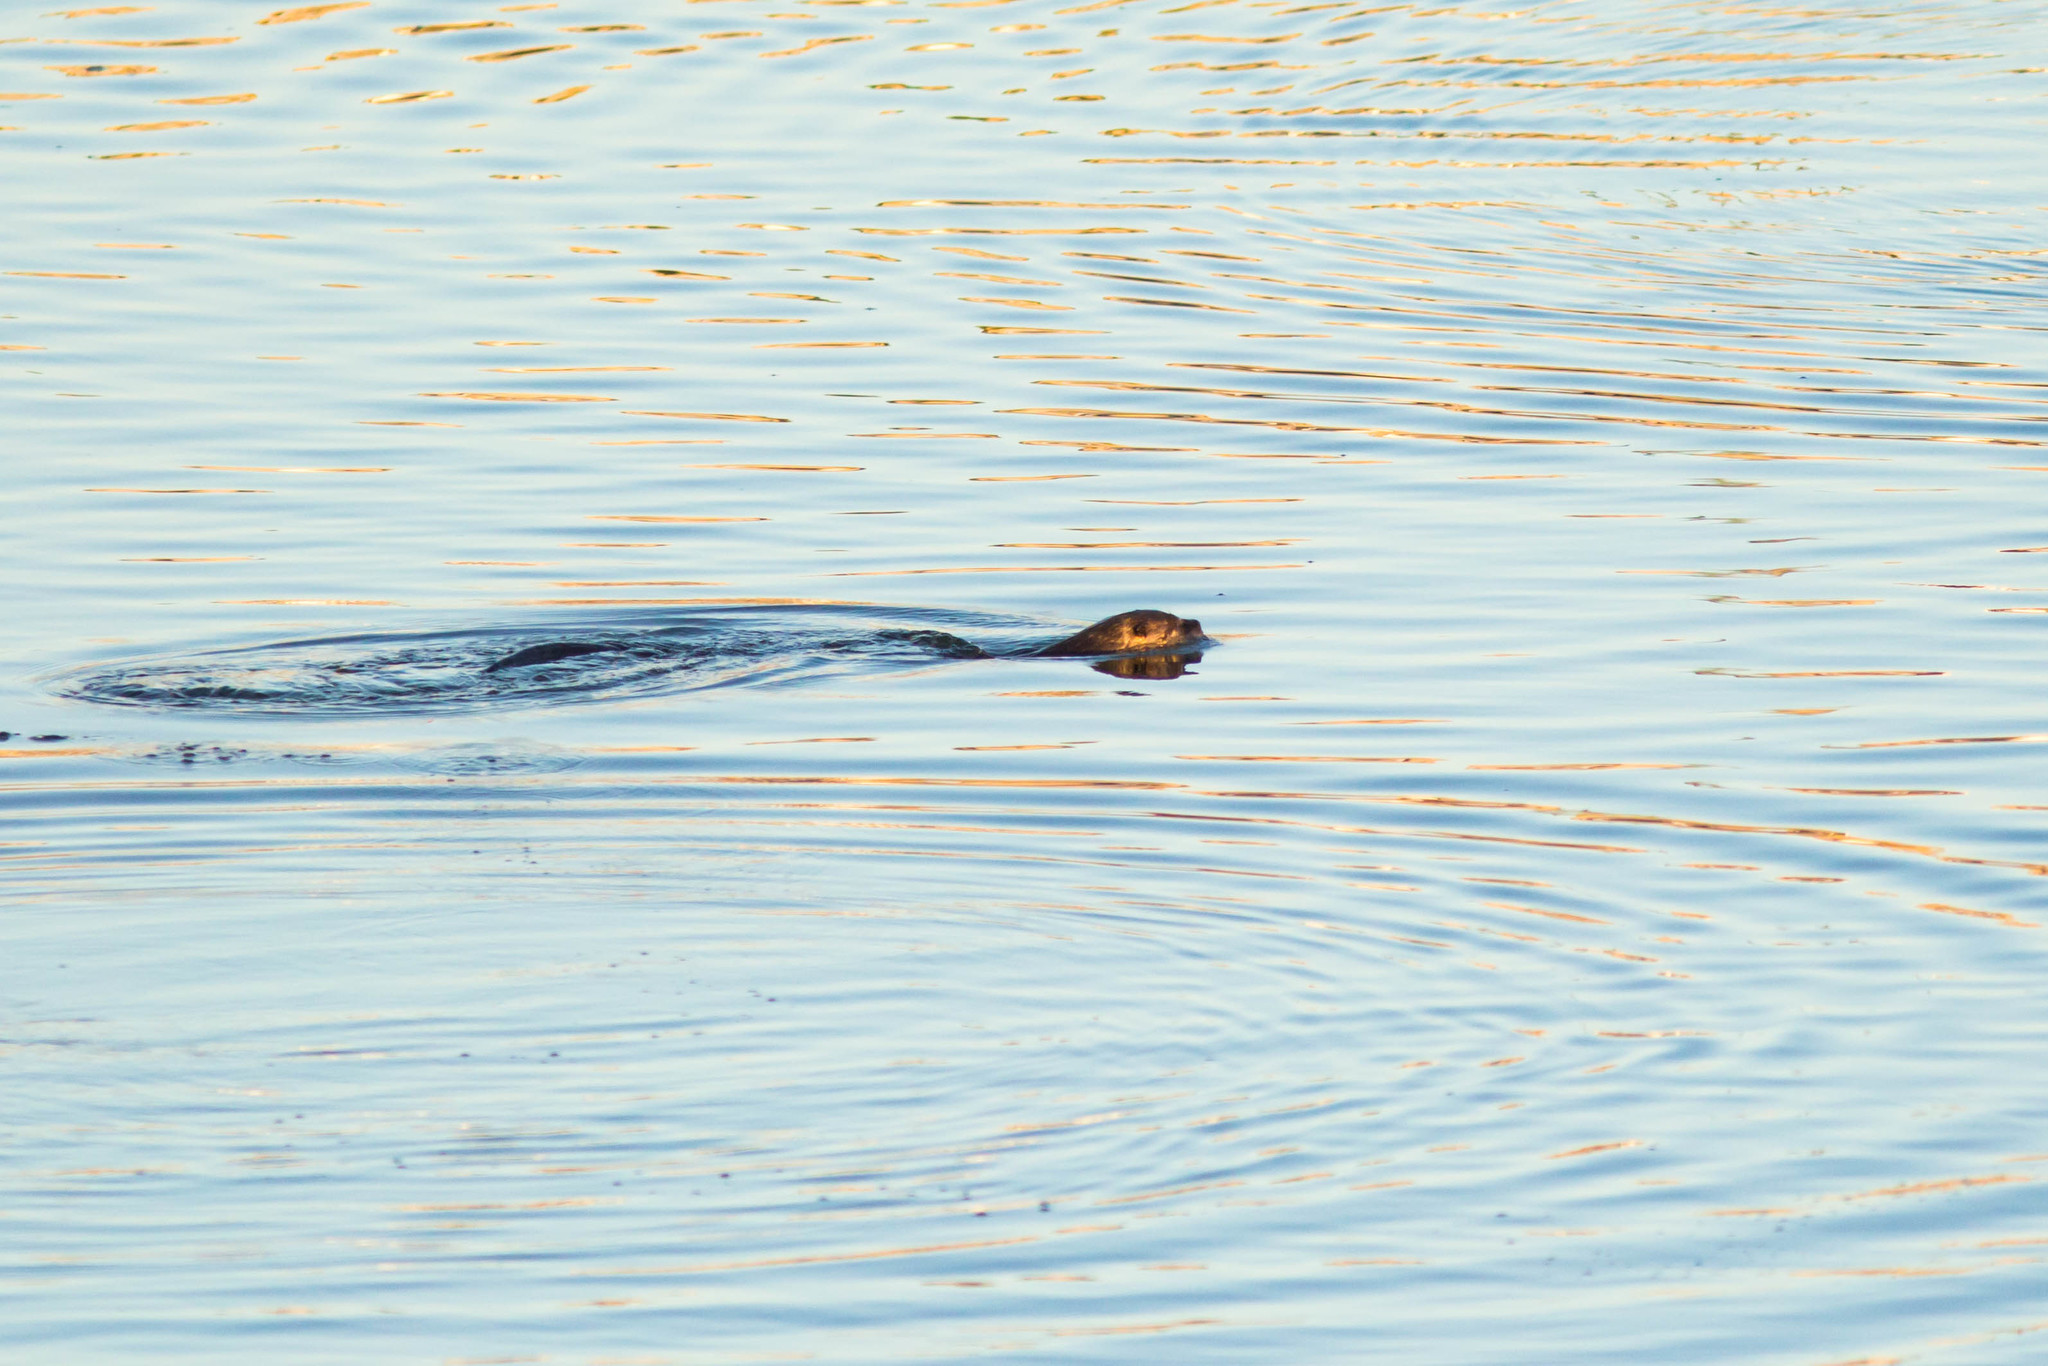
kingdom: Animalia
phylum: Chordata
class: Mammalia
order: Carnivora
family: Mustelidae
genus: Lontra
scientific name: Lontra canadensis
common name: North american river otter
